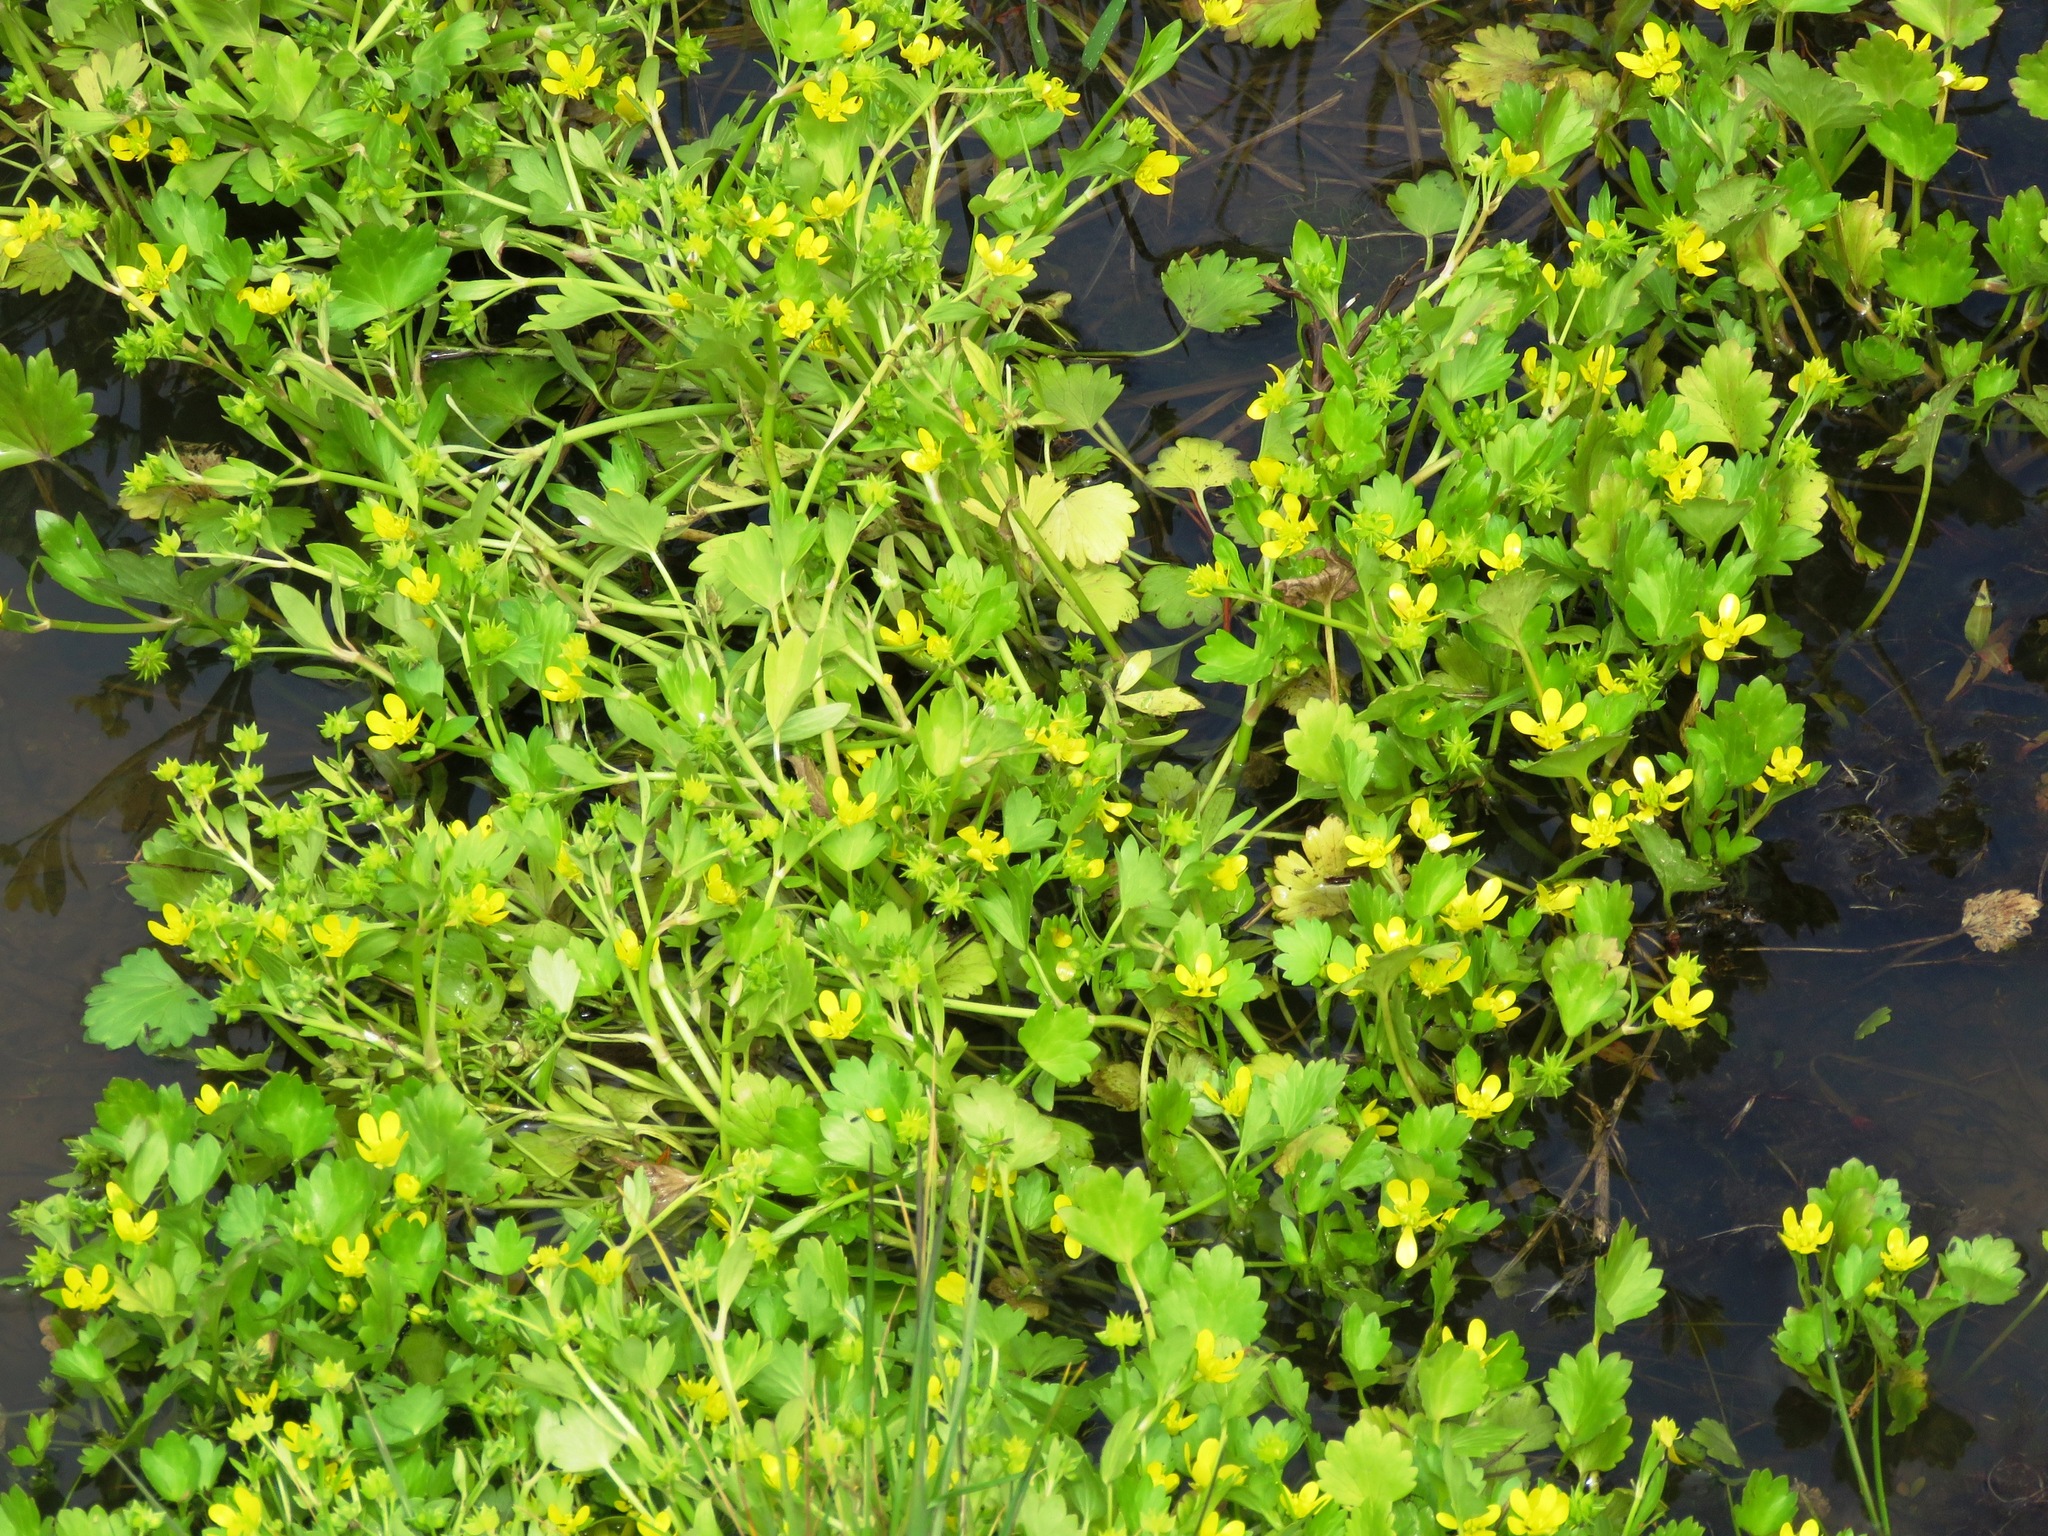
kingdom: Plantae
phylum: Tracheophyta
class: Magnoliopsida
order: Ranunculales
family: Ranunculaceae
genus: Ranunculus
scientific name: Ranunculus muricatus
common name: Rough-fruited buttercup
